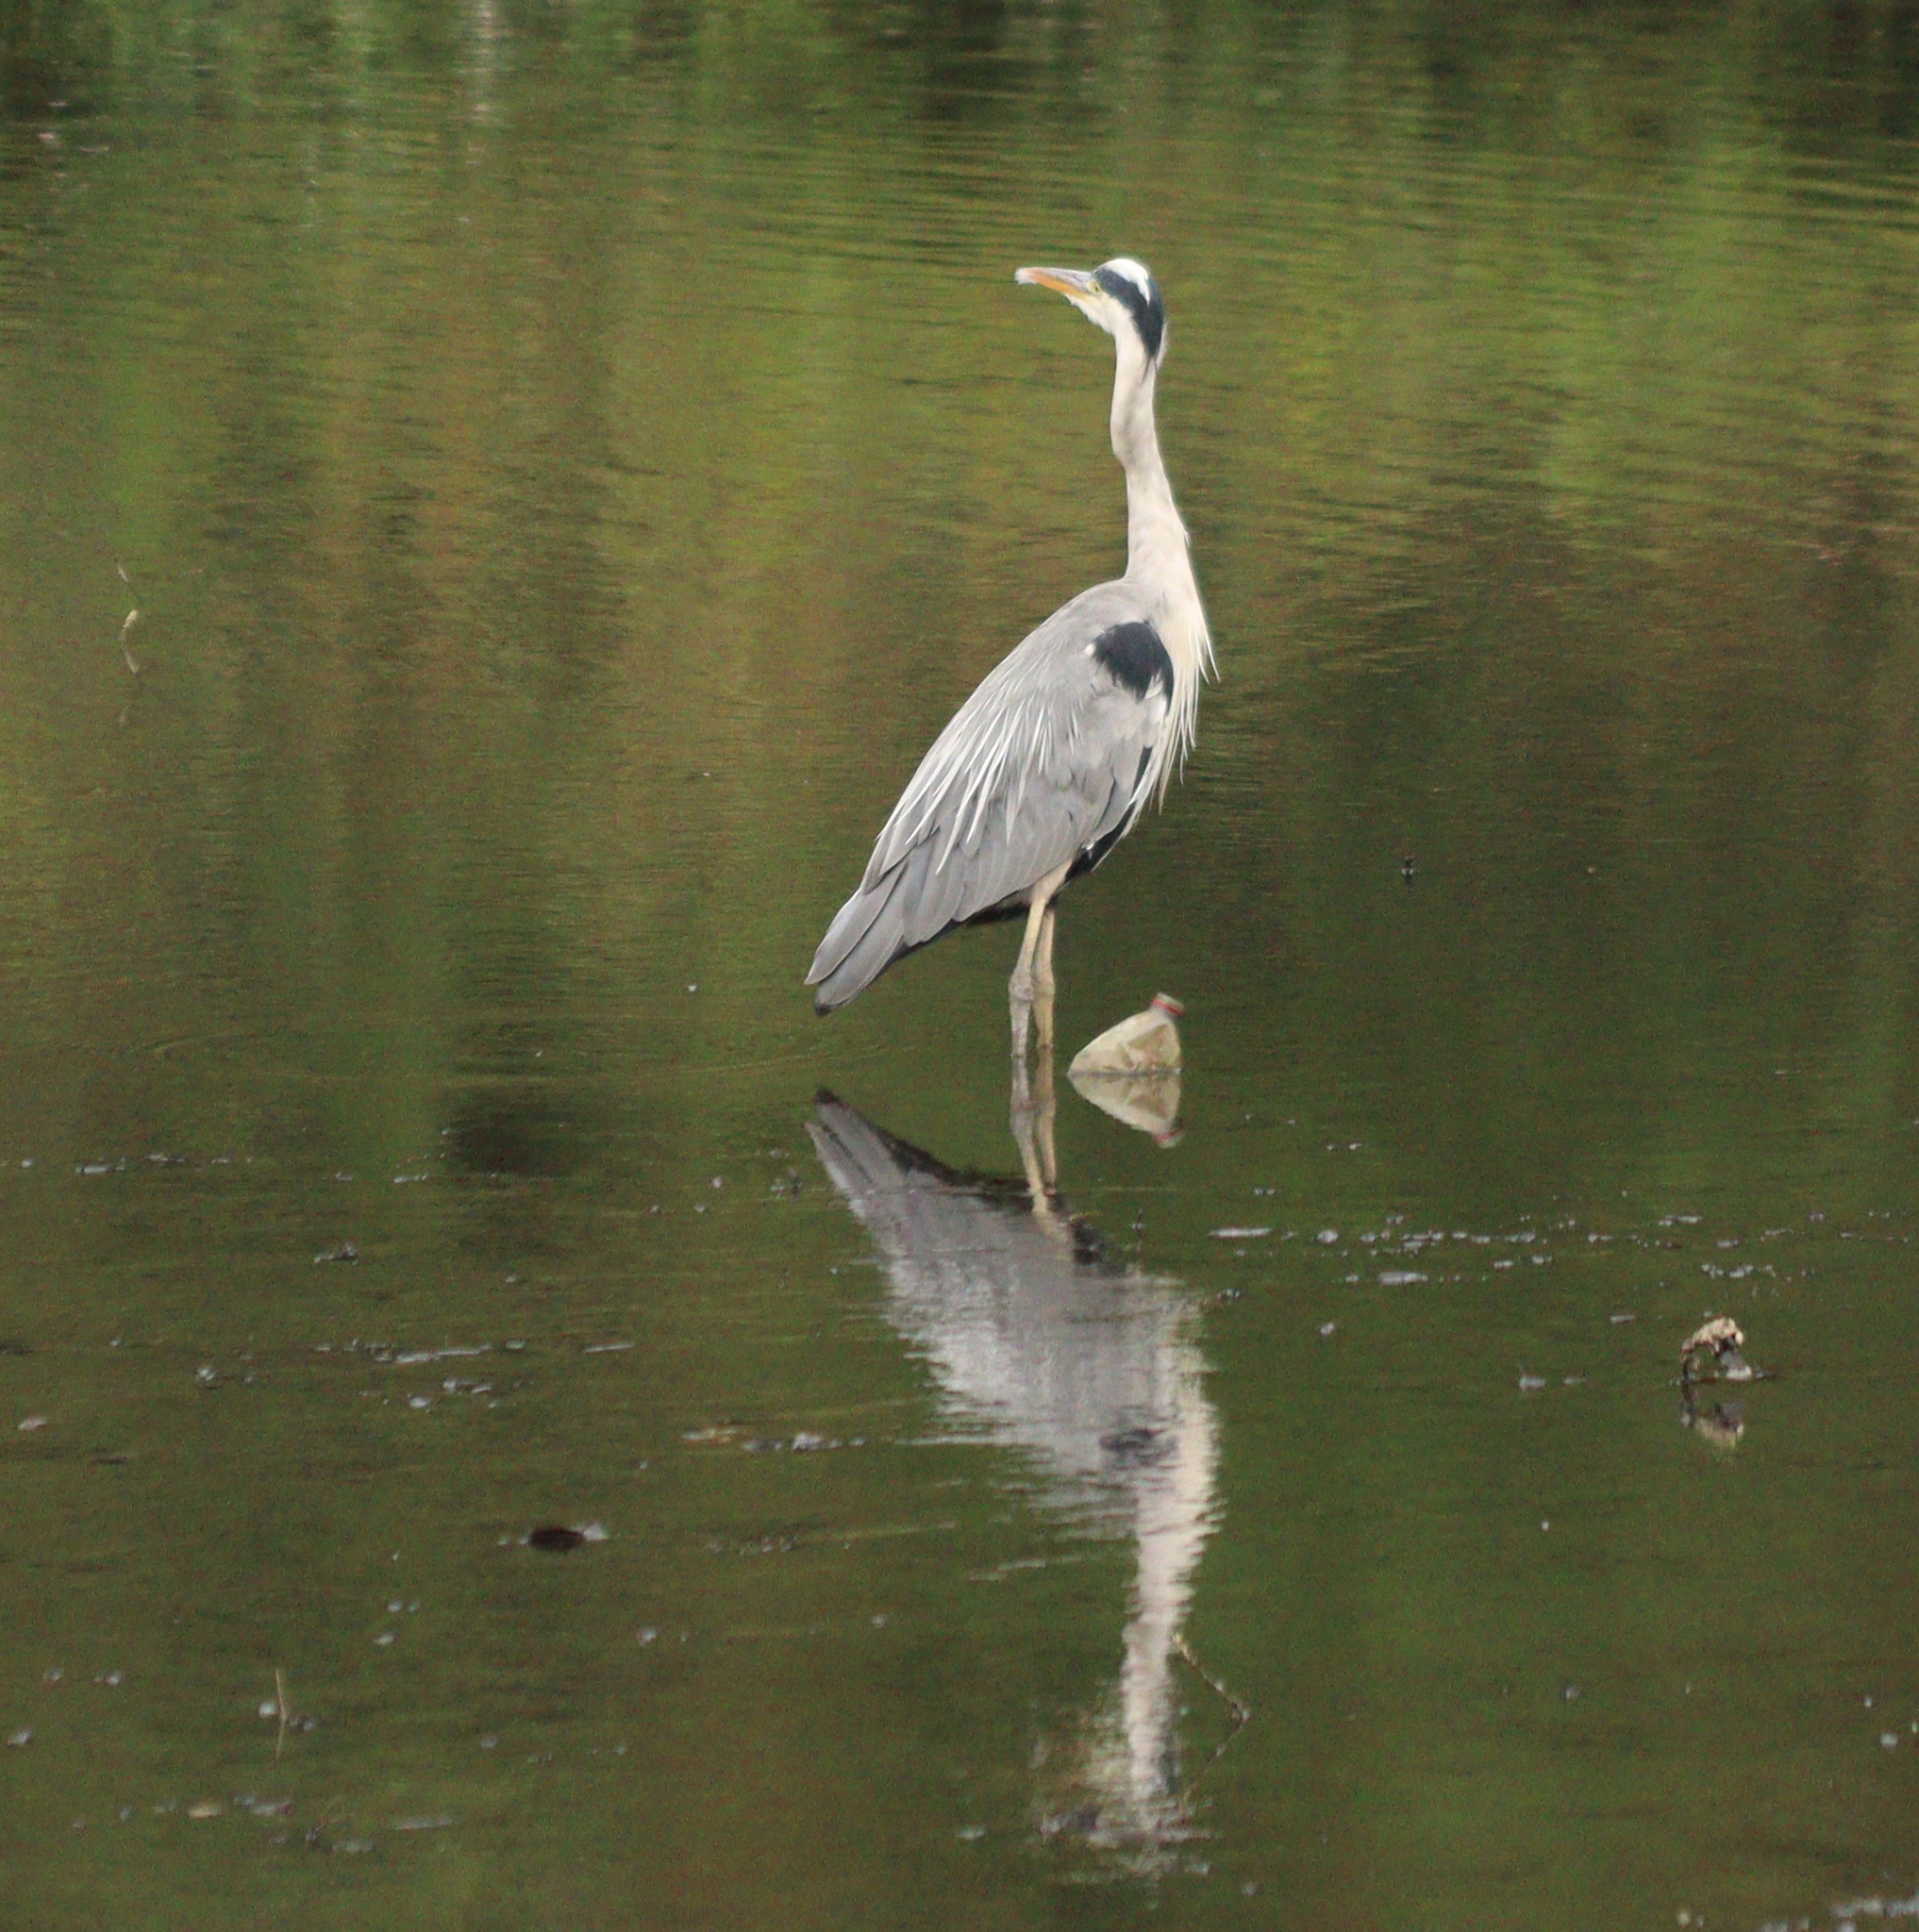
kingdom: Animalia
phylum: Chordata
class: Aves
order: Pelecaniformes
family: Ardeidae
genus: Ardea
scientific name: Ardea cinerea
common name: Grey heron
